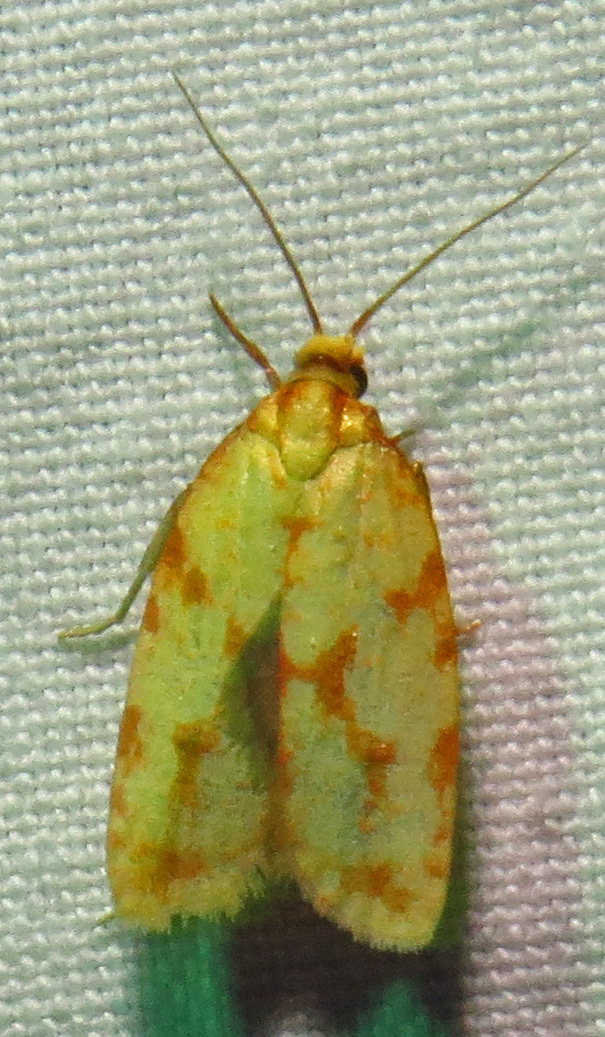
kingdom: Animalia
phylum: Arthropoda
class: Insecta
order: Lepidoptera
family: Tortricidae
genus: Sparganothis
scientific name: Sparganothis sulfureana
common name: Sparganothis fruitworm moth
